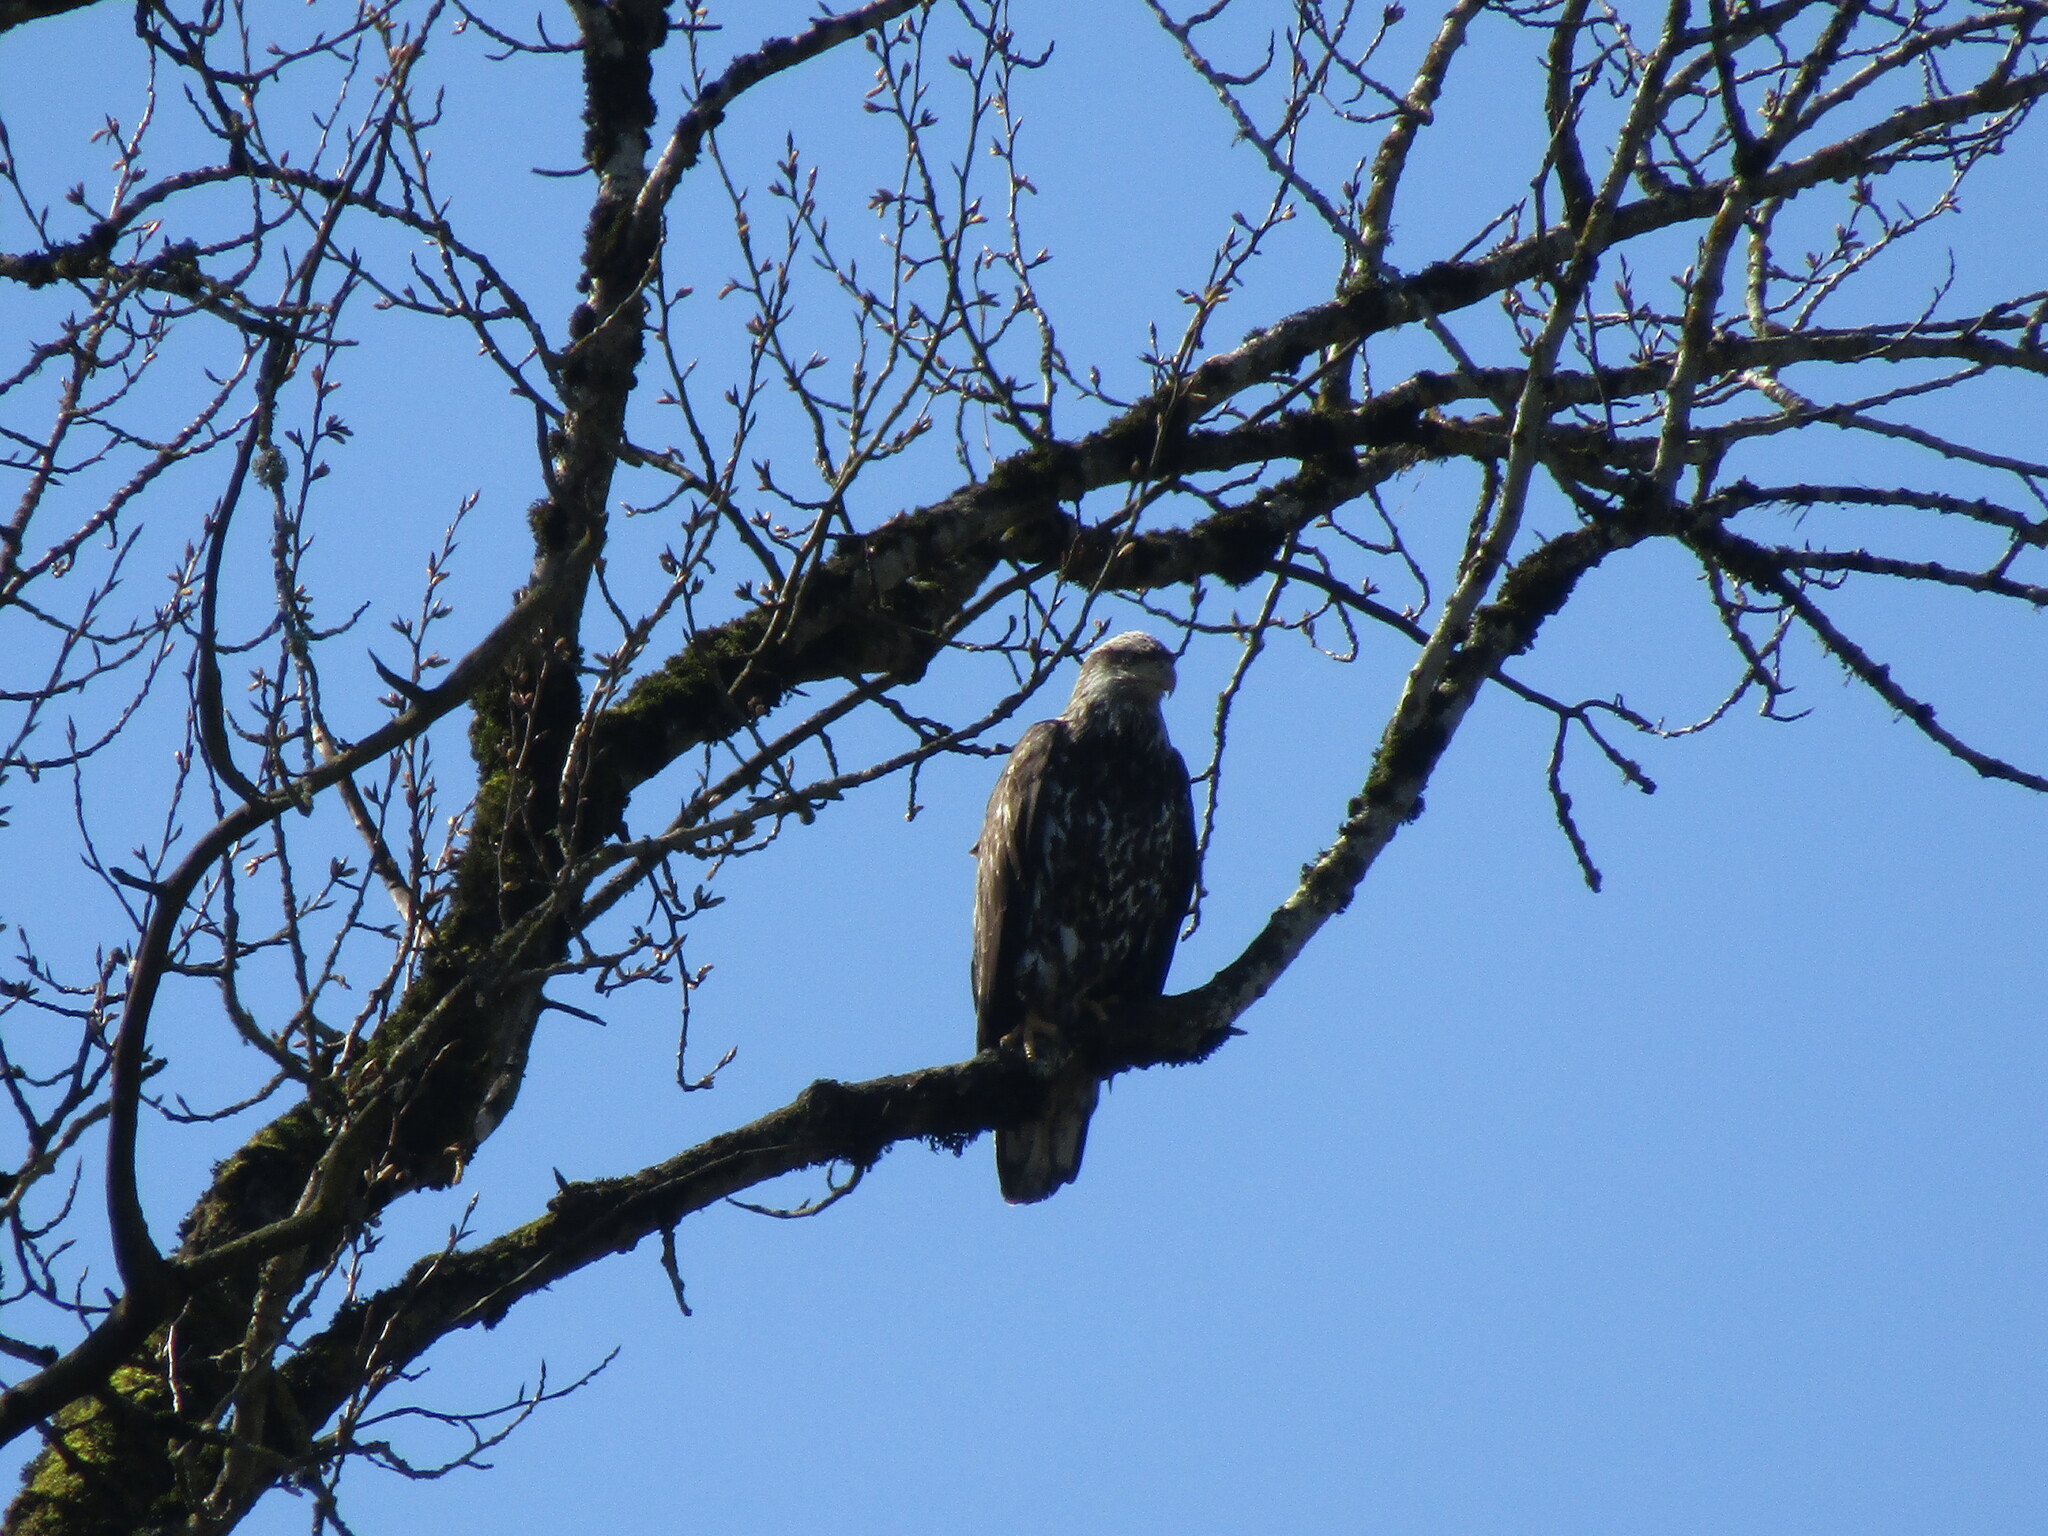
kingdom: Animalia
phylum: Chordata
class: Aves
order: Accipitriformes
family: Accipitridae
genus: Haliaeetus
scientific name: Haliaeetus leucocephalus
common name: Bald eagle
